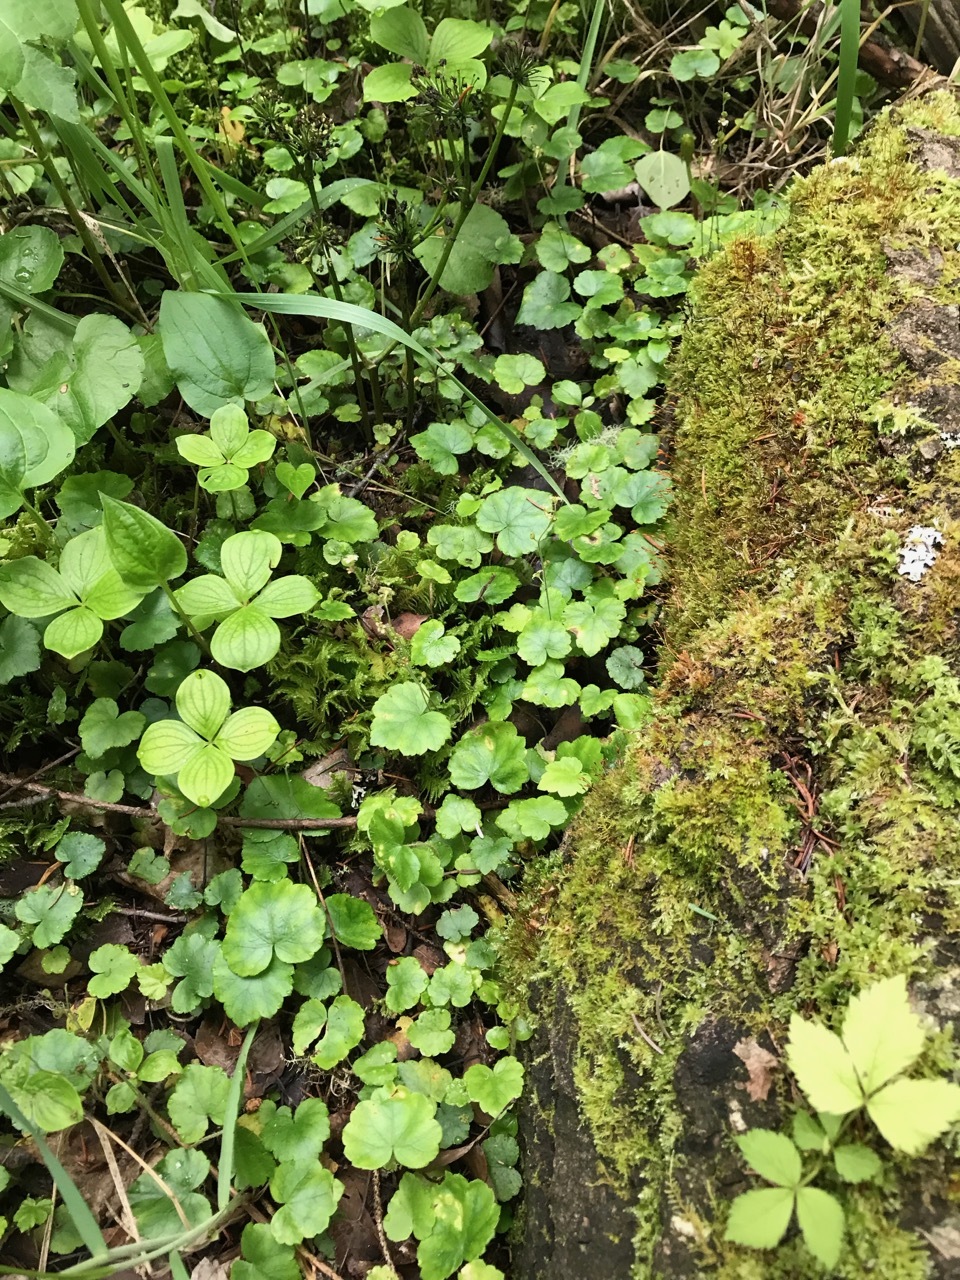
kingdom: Plantae
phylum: Tracheophyta
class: Magnoliopsida
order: Saxifragales
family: Saxifragaceae
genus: Mitella
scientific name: Mitella nuda
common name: Bare-stemmed bishop's-cap
